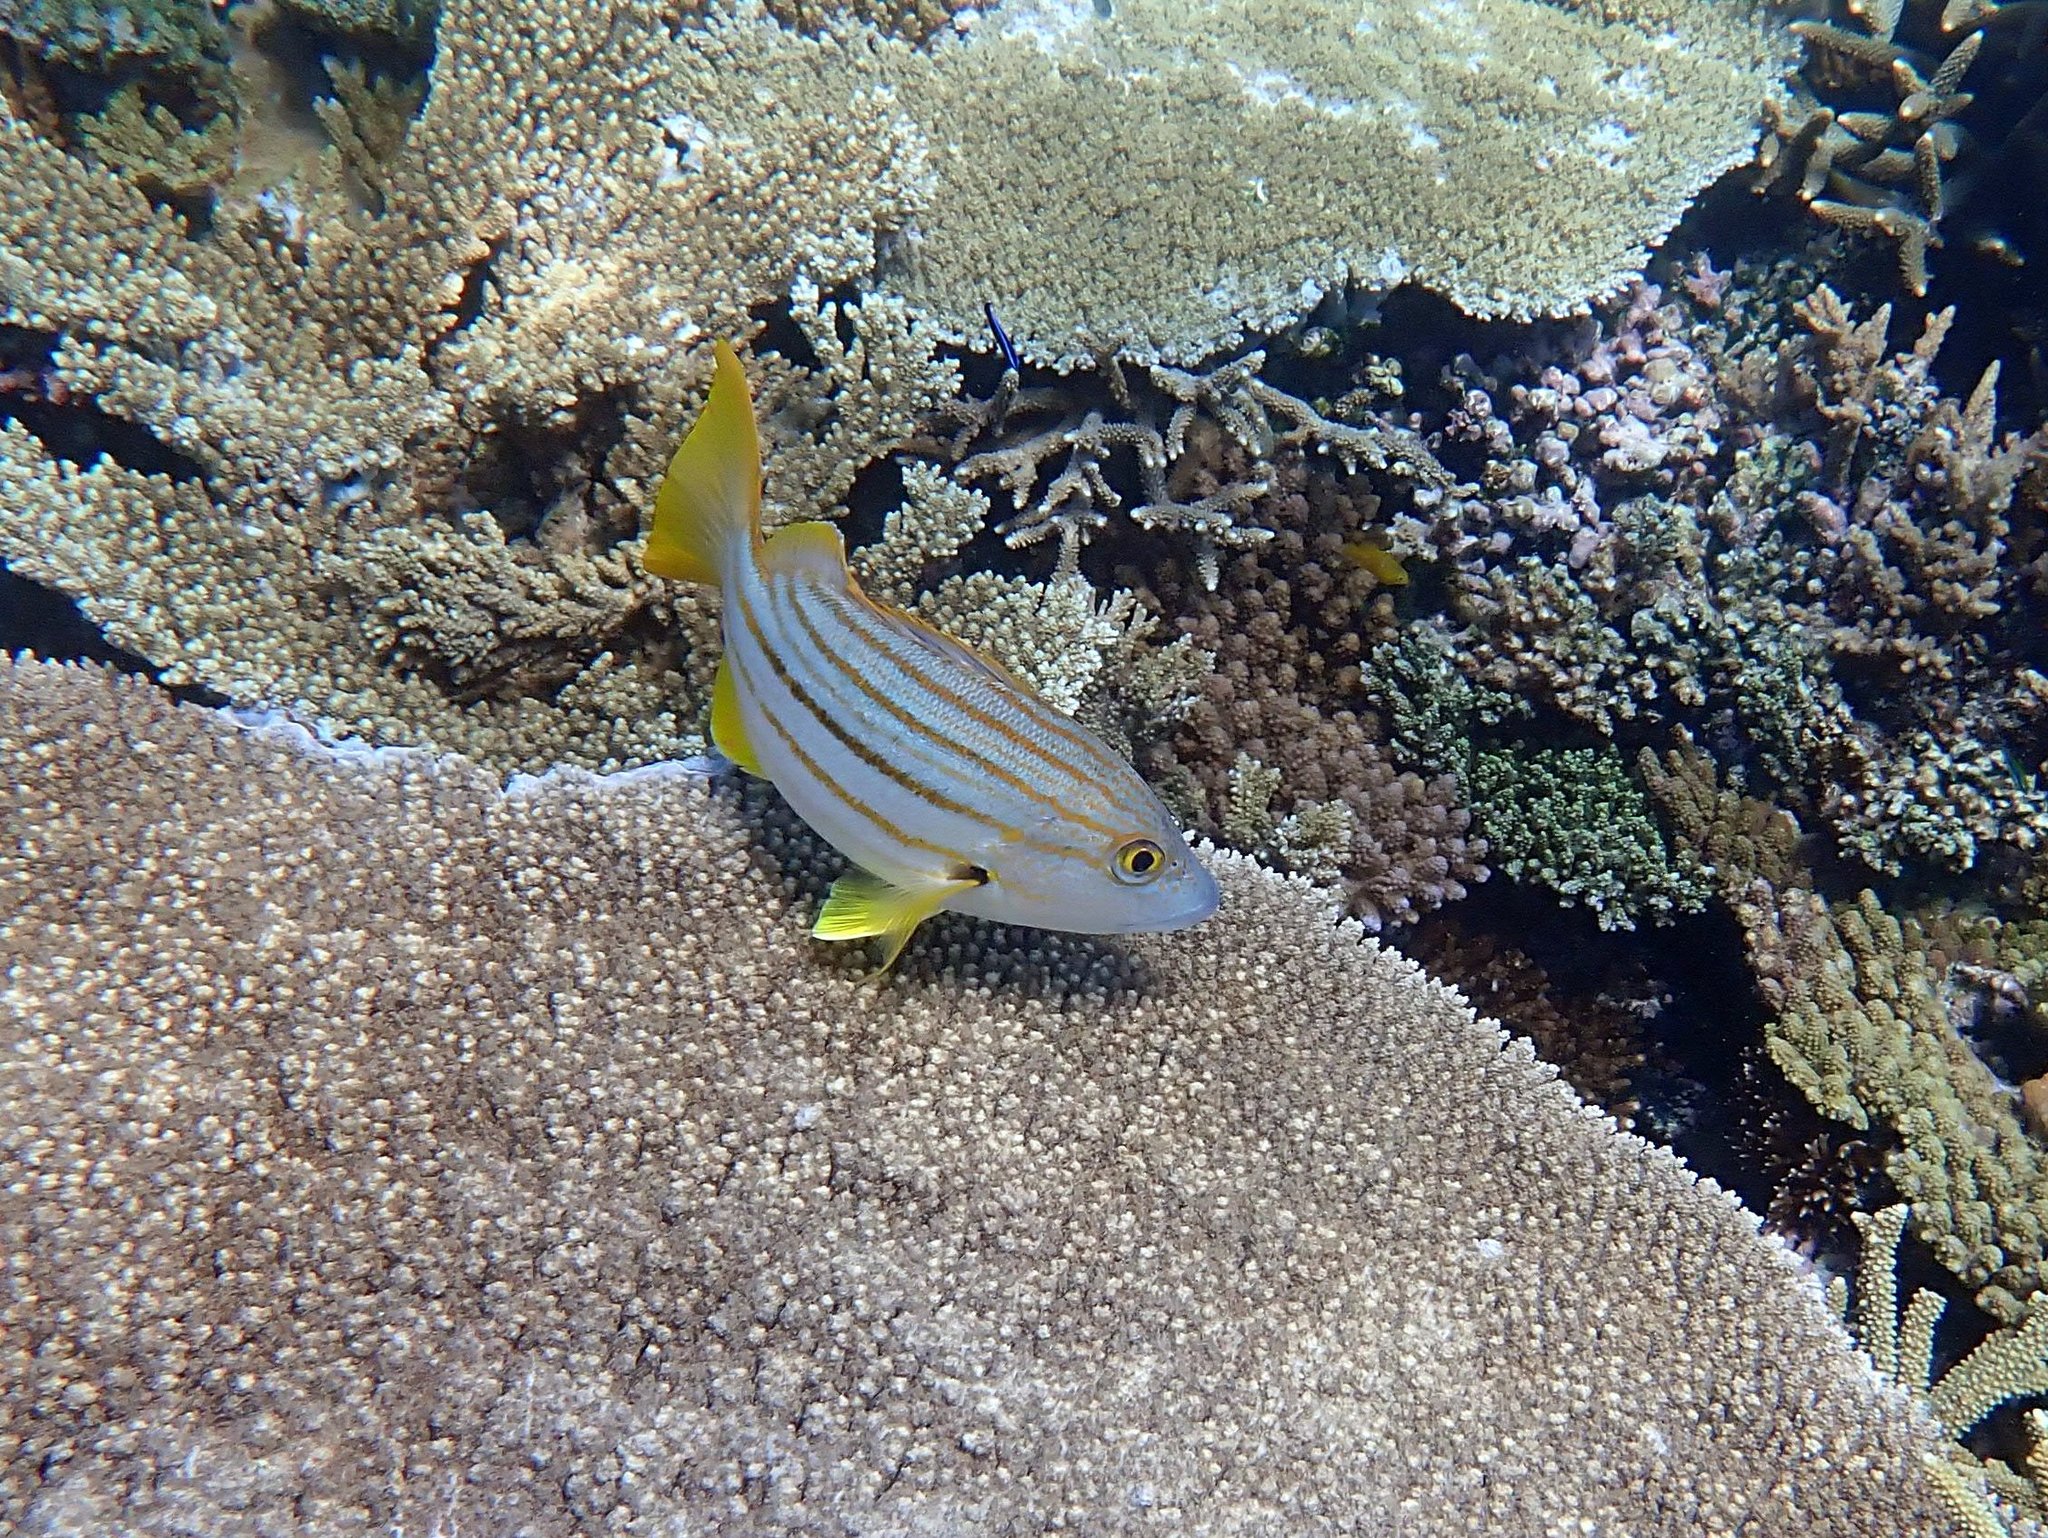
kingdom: Animalia
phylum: Chordata
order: Perciformes
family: Lutjanidae
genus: Lutjanus
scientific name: Lutjanus carponotatus
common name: Spanish flag
